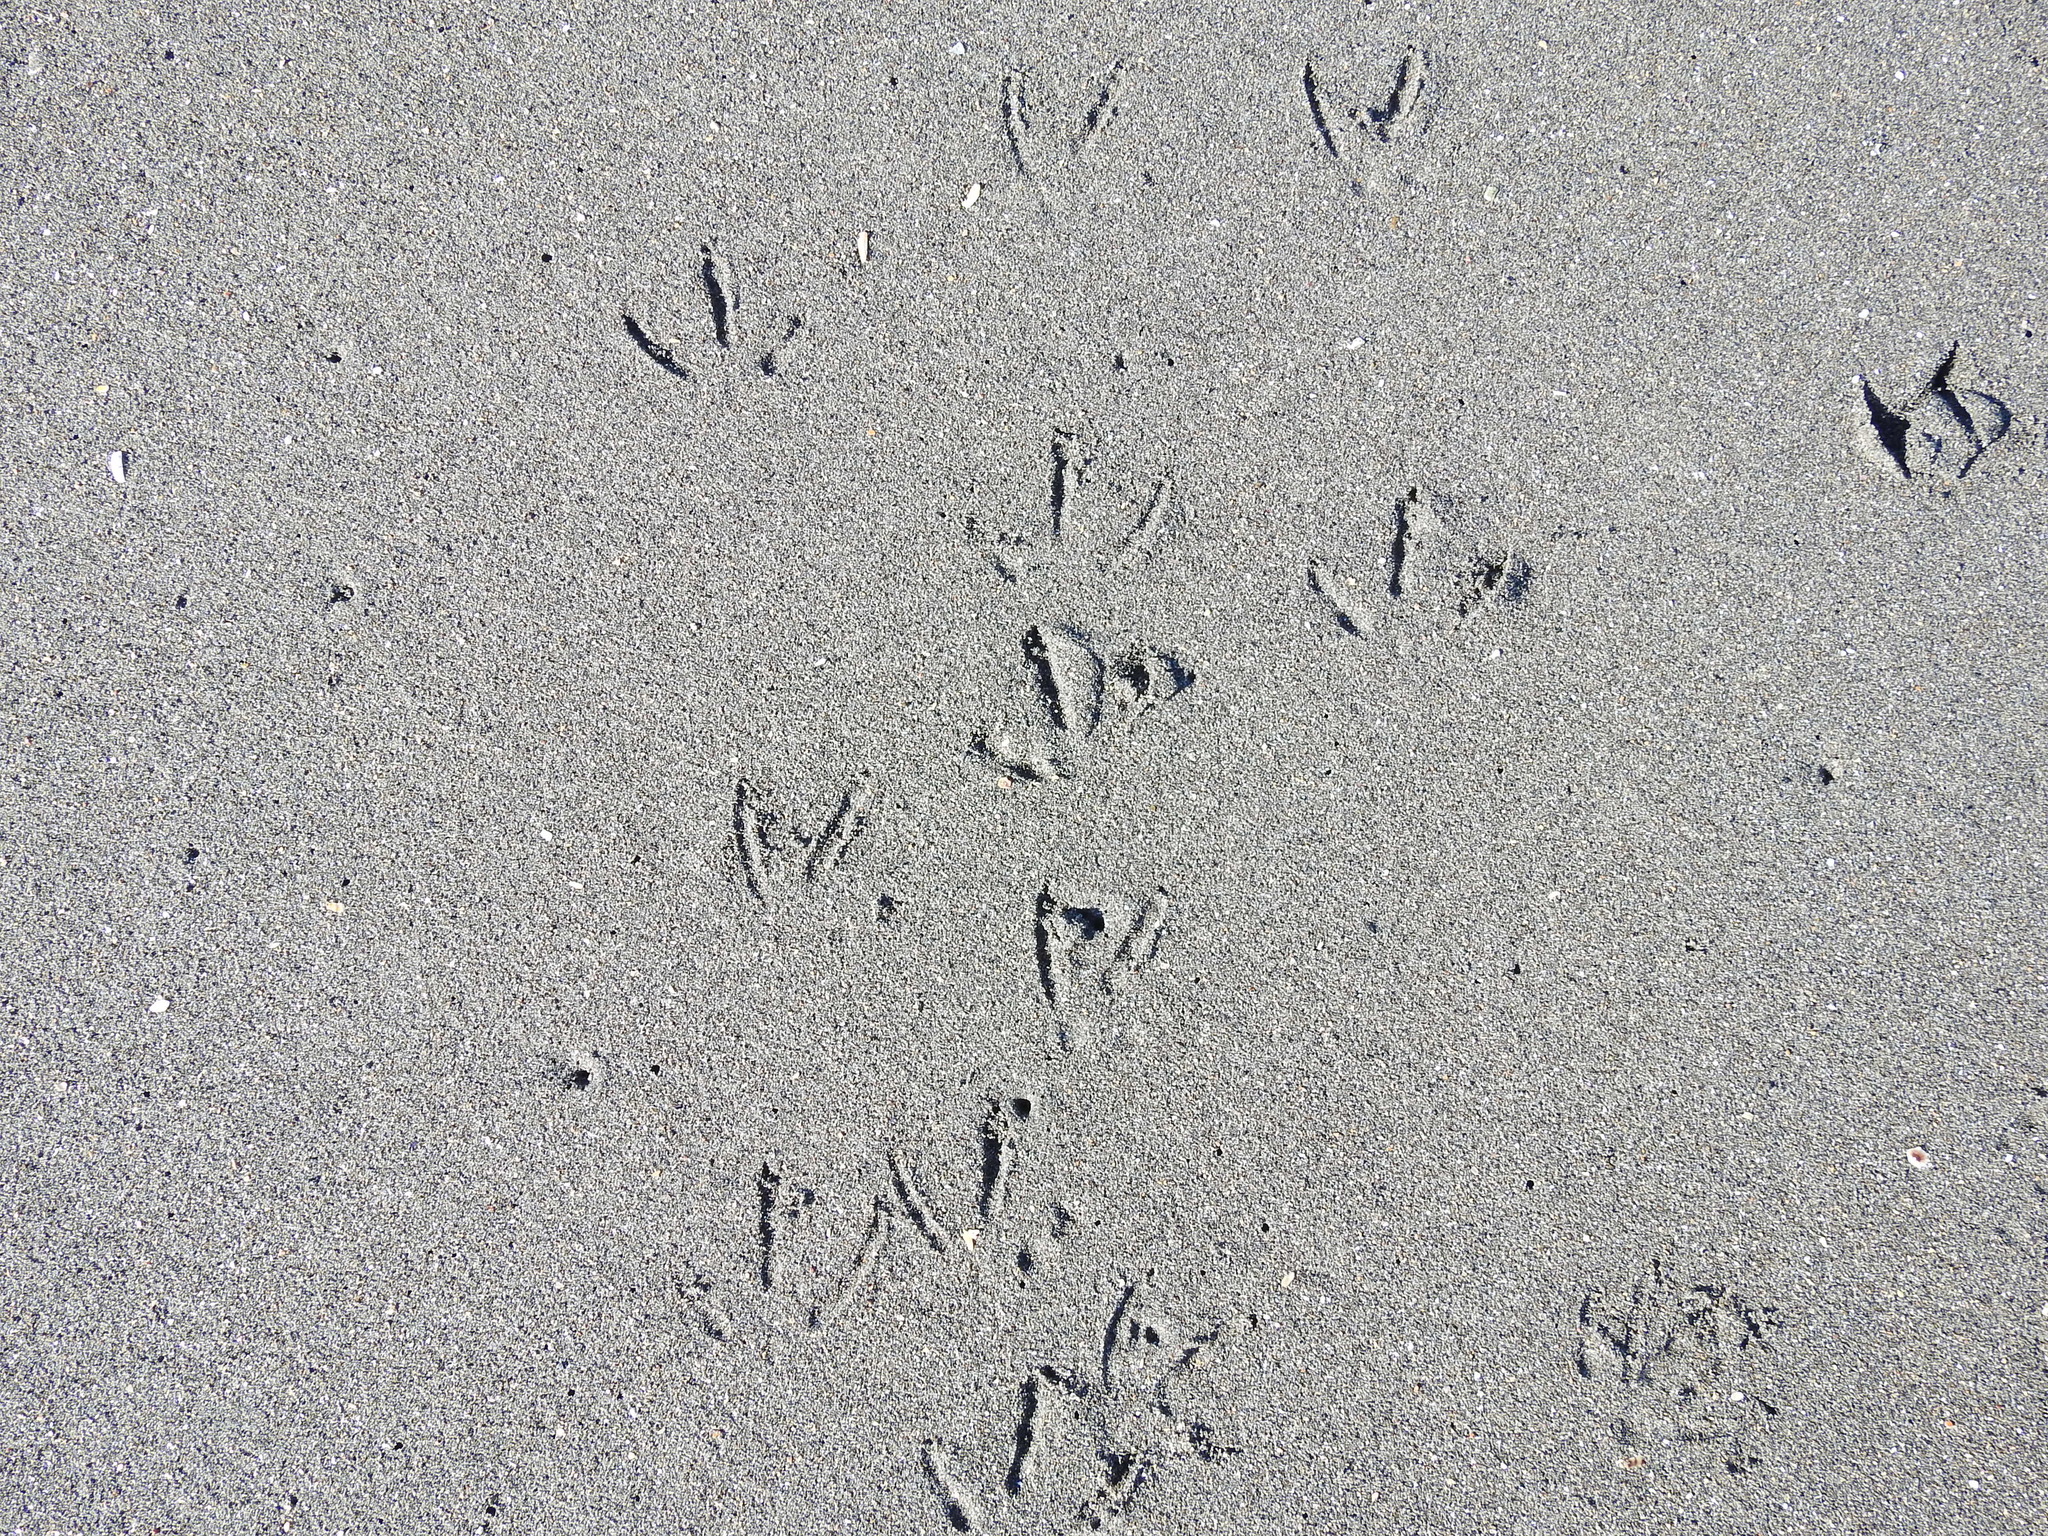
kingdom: Animalia
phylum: Chordata
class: Aves
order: Charadriiformes
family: Laridae
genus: Larus
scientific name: Larus dominicanus
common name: Kelp gull
